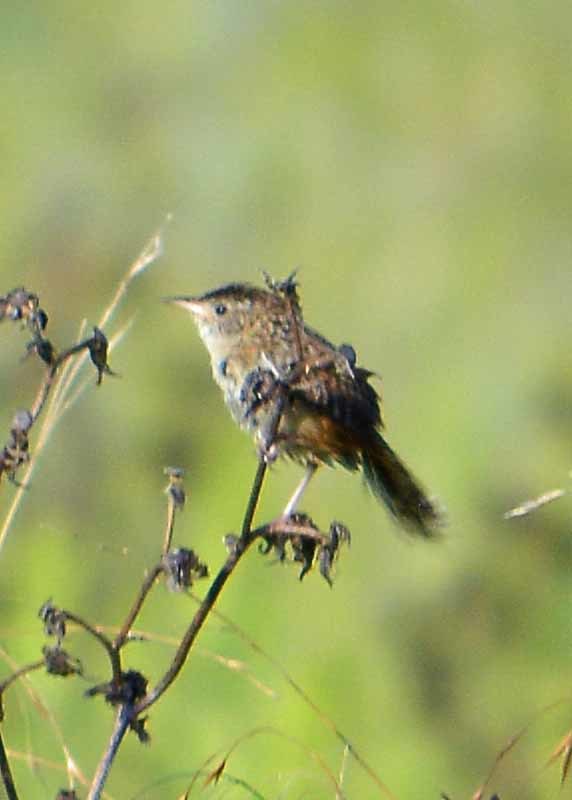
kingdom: Animalia
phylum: Chordata
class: Aves
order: Passeriformes
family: Troglodytidae
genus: Cistothorus
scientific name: Cistothorus platensis
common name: Sedge wren
